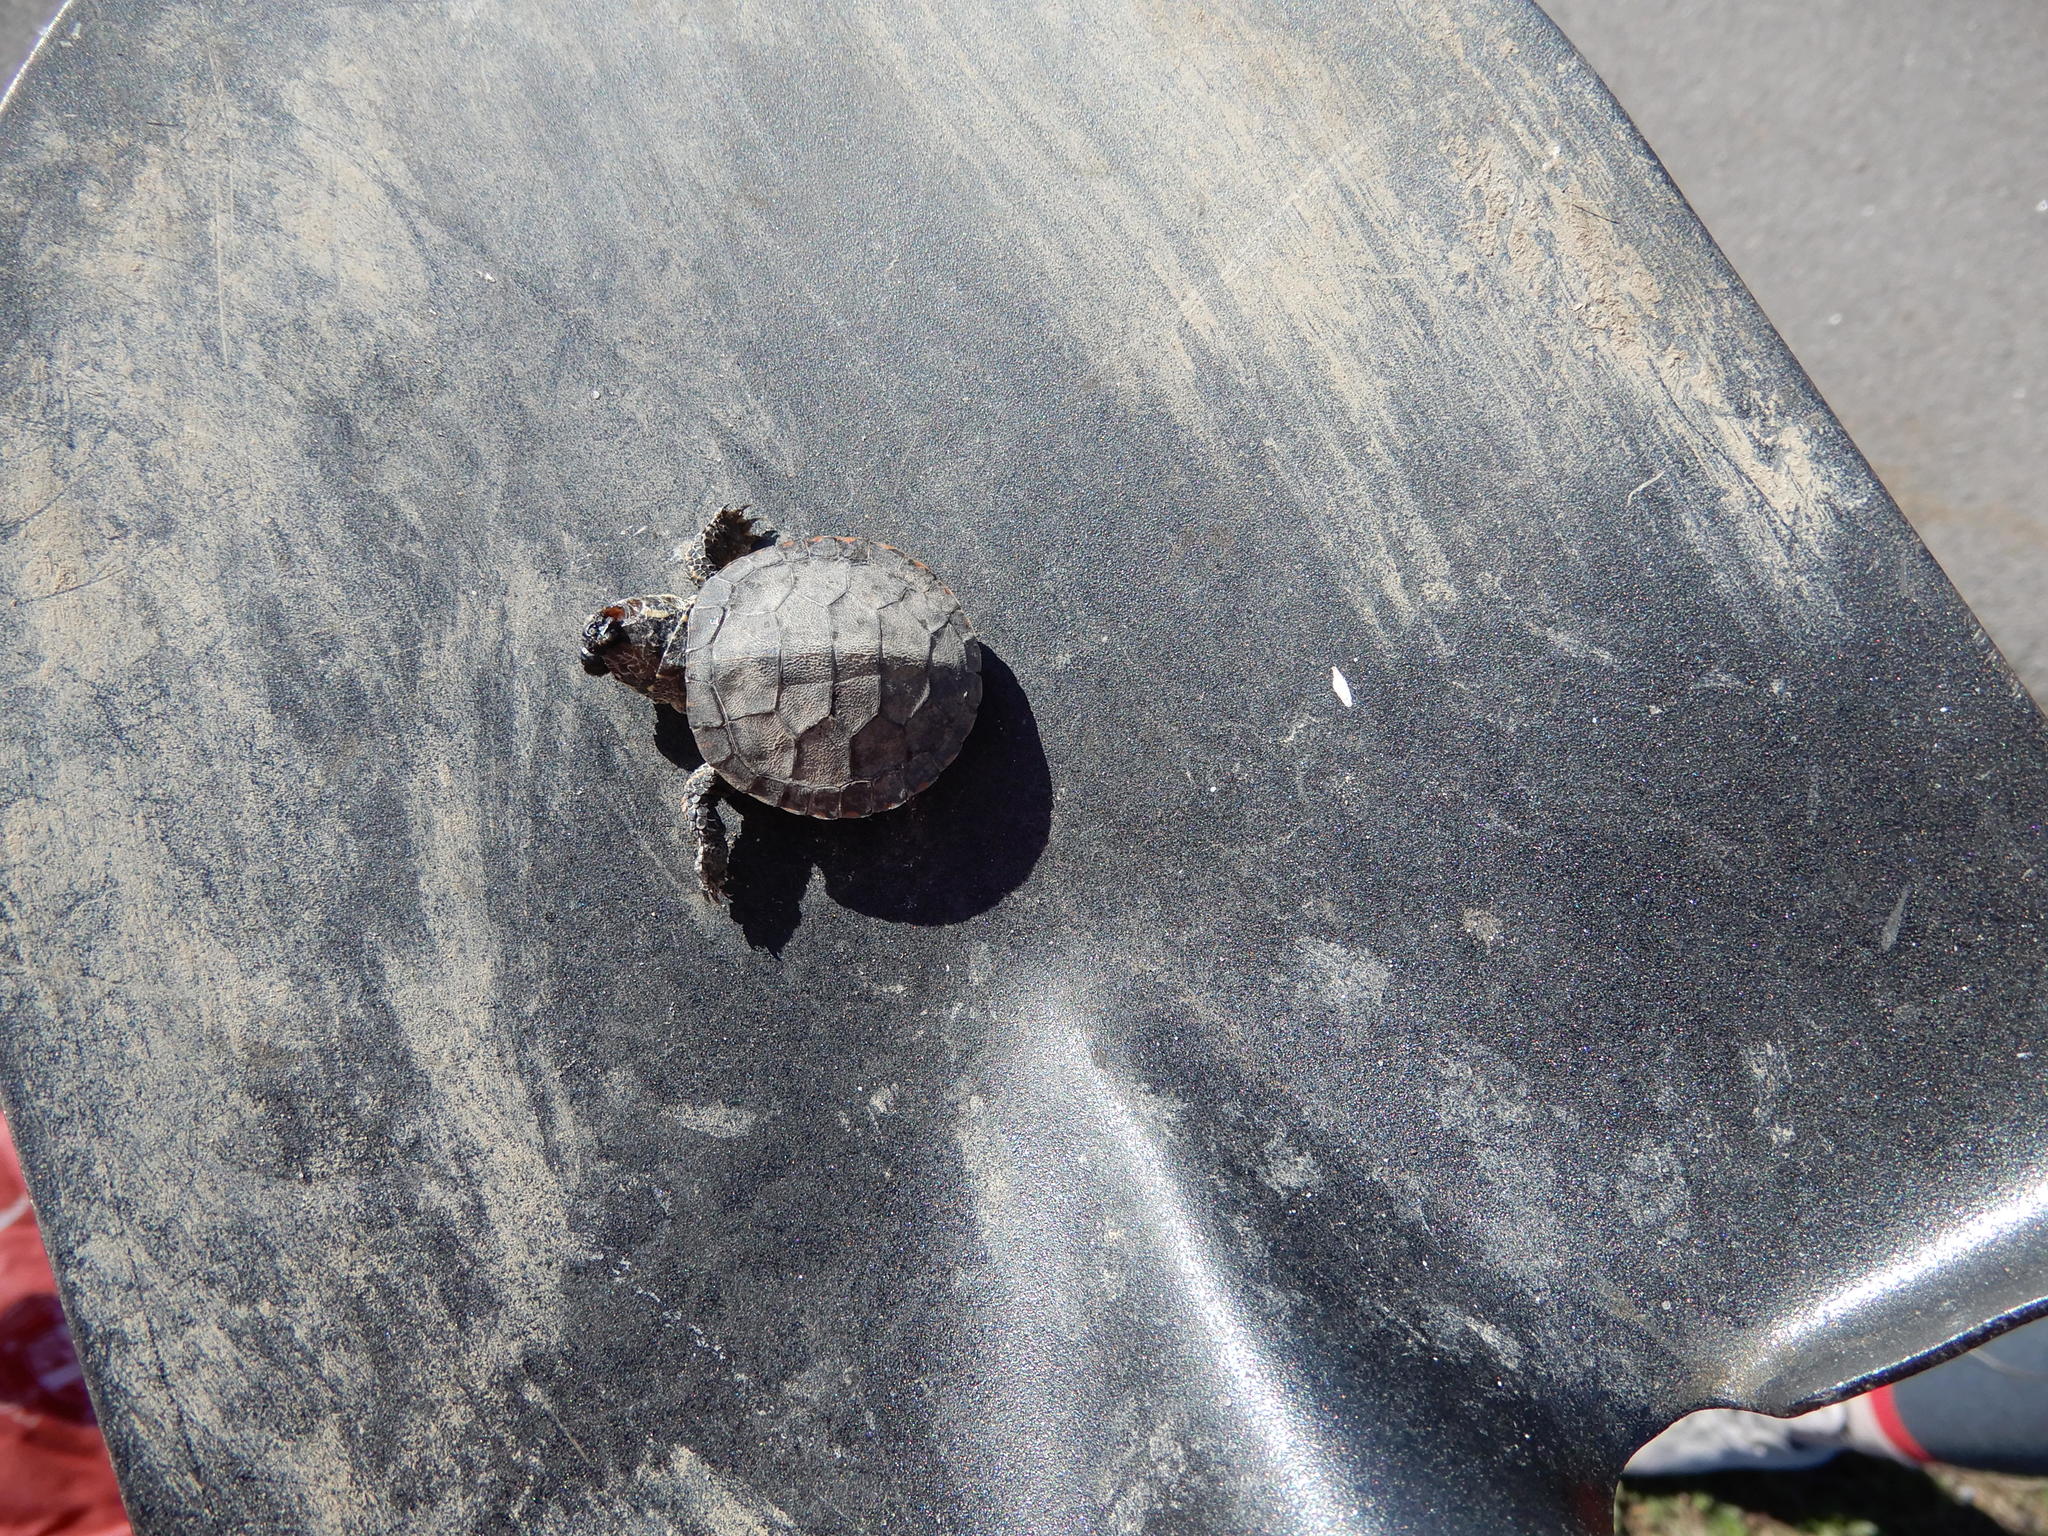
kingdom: Animalia
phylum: Chordata
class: Testudines
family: Emydidae
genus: Chrysemys
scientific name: Chrysemys picta
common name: Painted turtle
